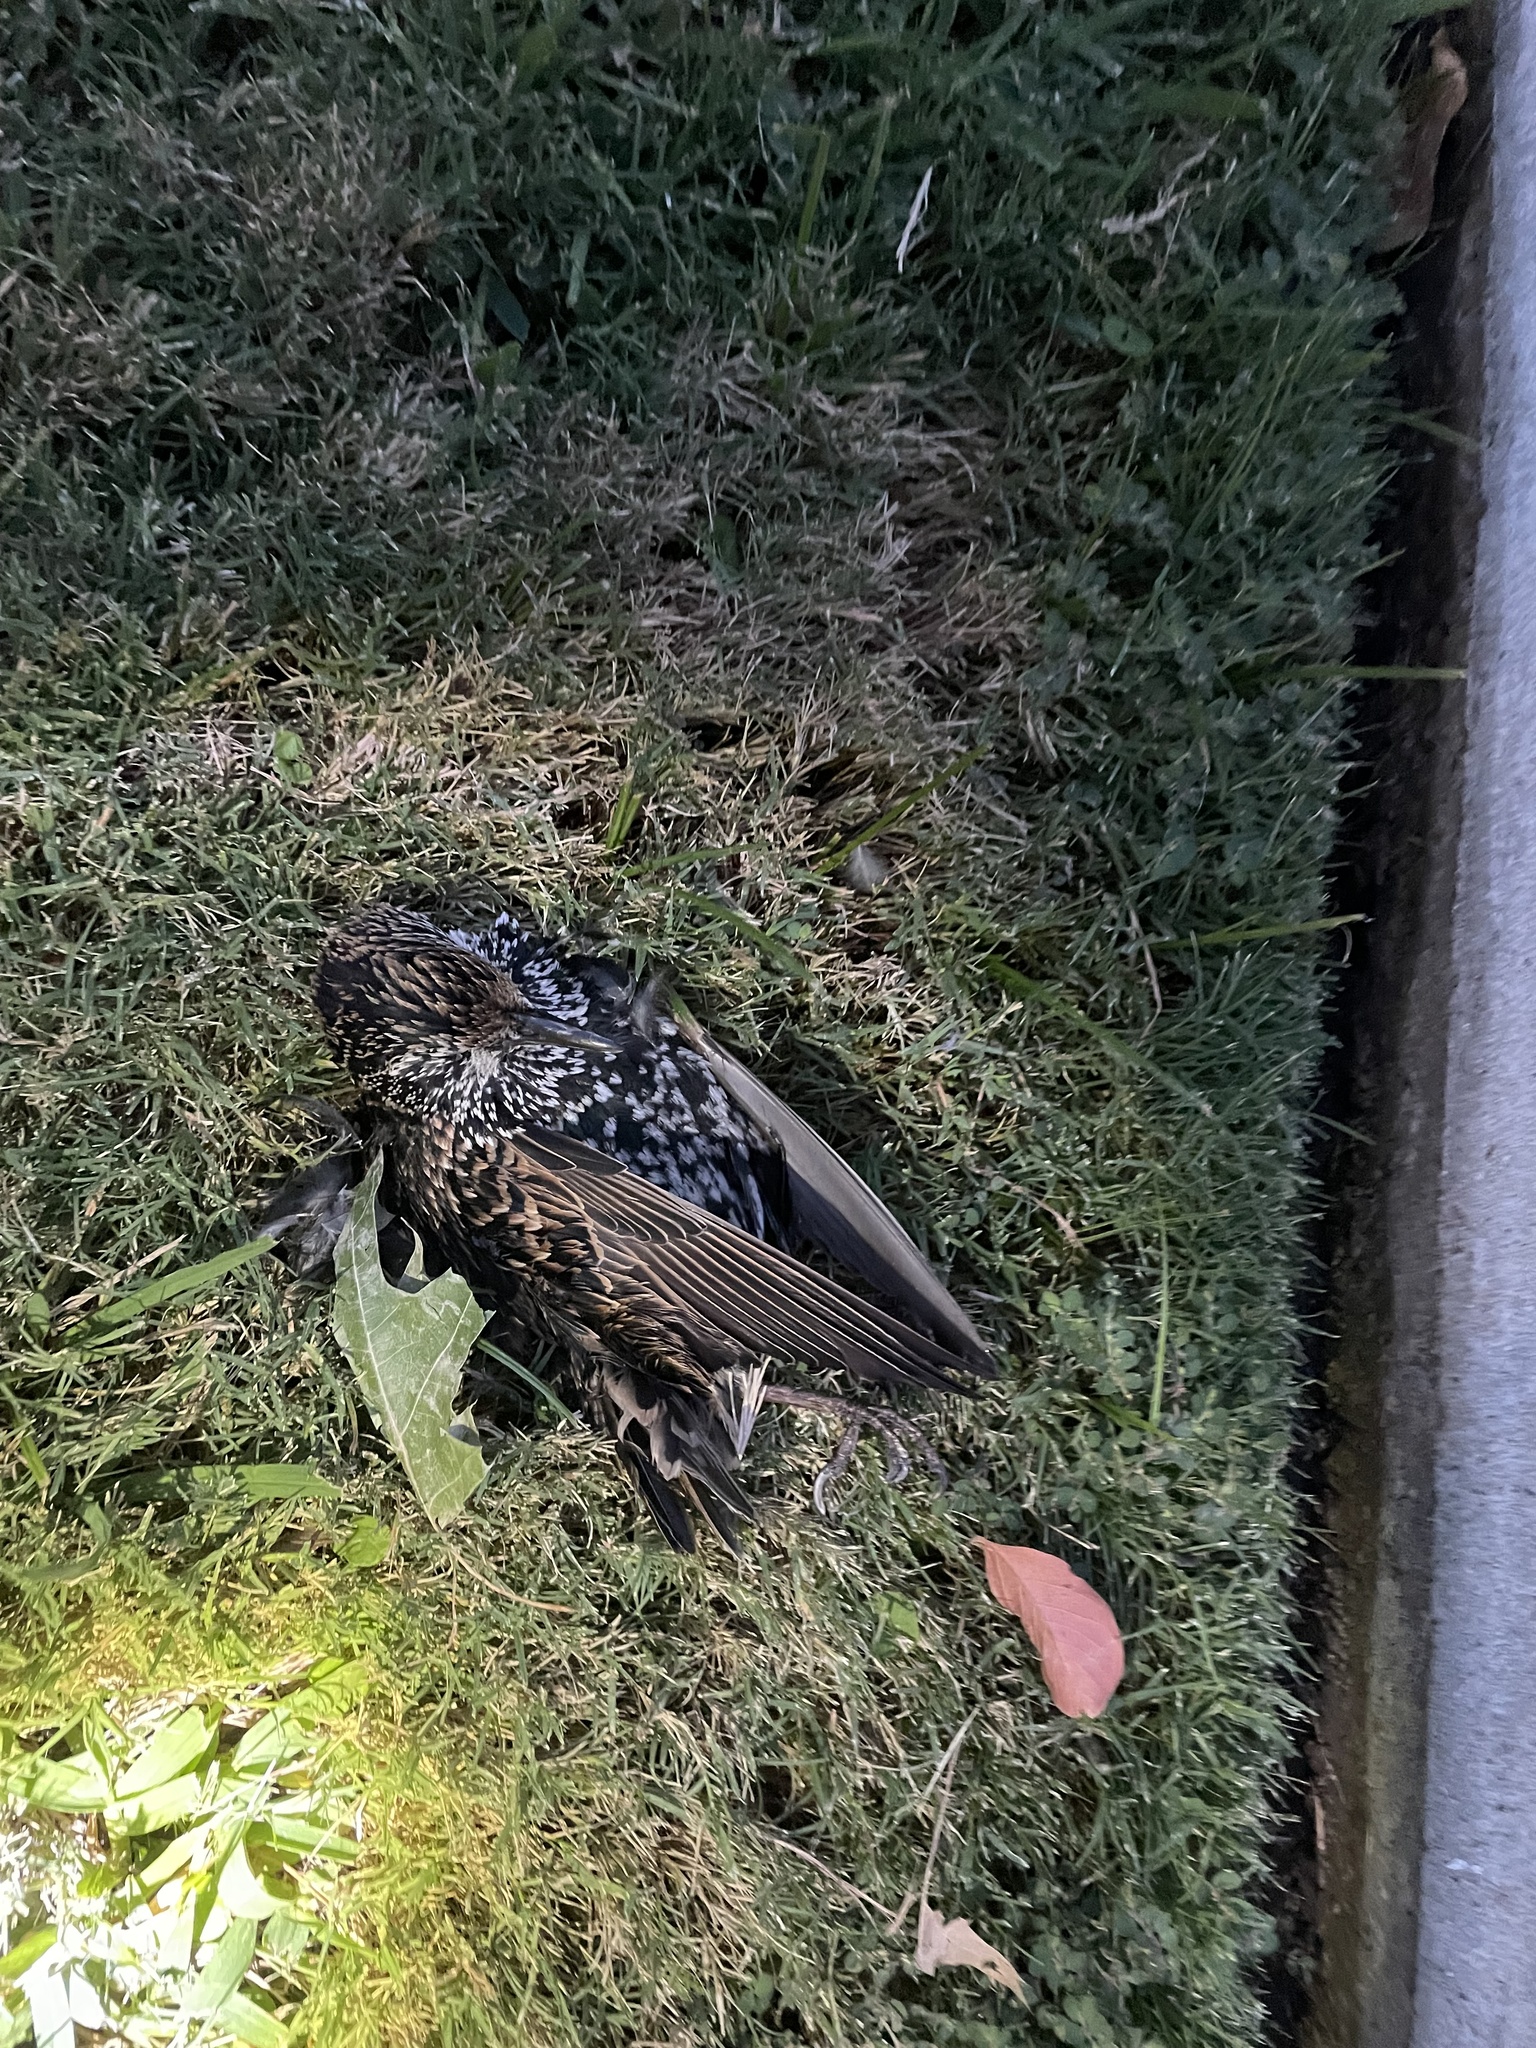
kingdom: Animalia
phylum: Chordata
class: Aves
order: Passeriformes
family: Sturnidae
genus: Sturnus
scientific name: Sturnus vulgaris
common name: Common starling
